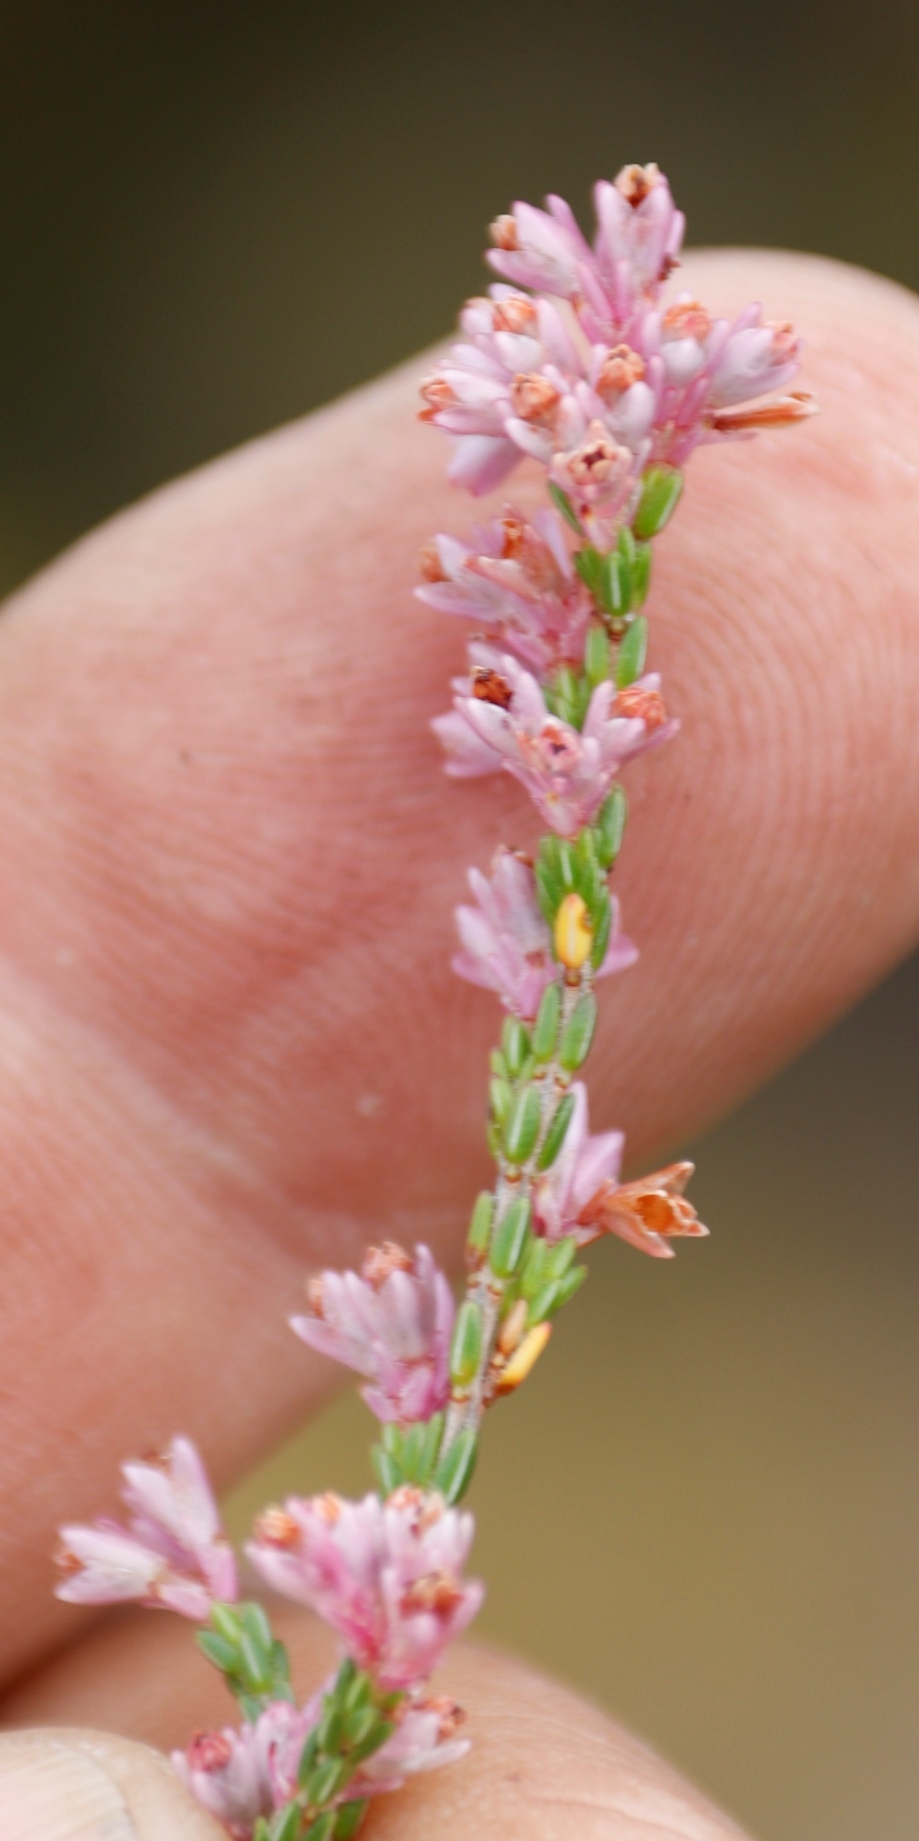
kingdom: Plantae
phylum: Tracheophyta
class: Magnoliopsida
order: Ericales
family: Ericaceae
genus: Erica
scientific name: Erica gnaphaloides
